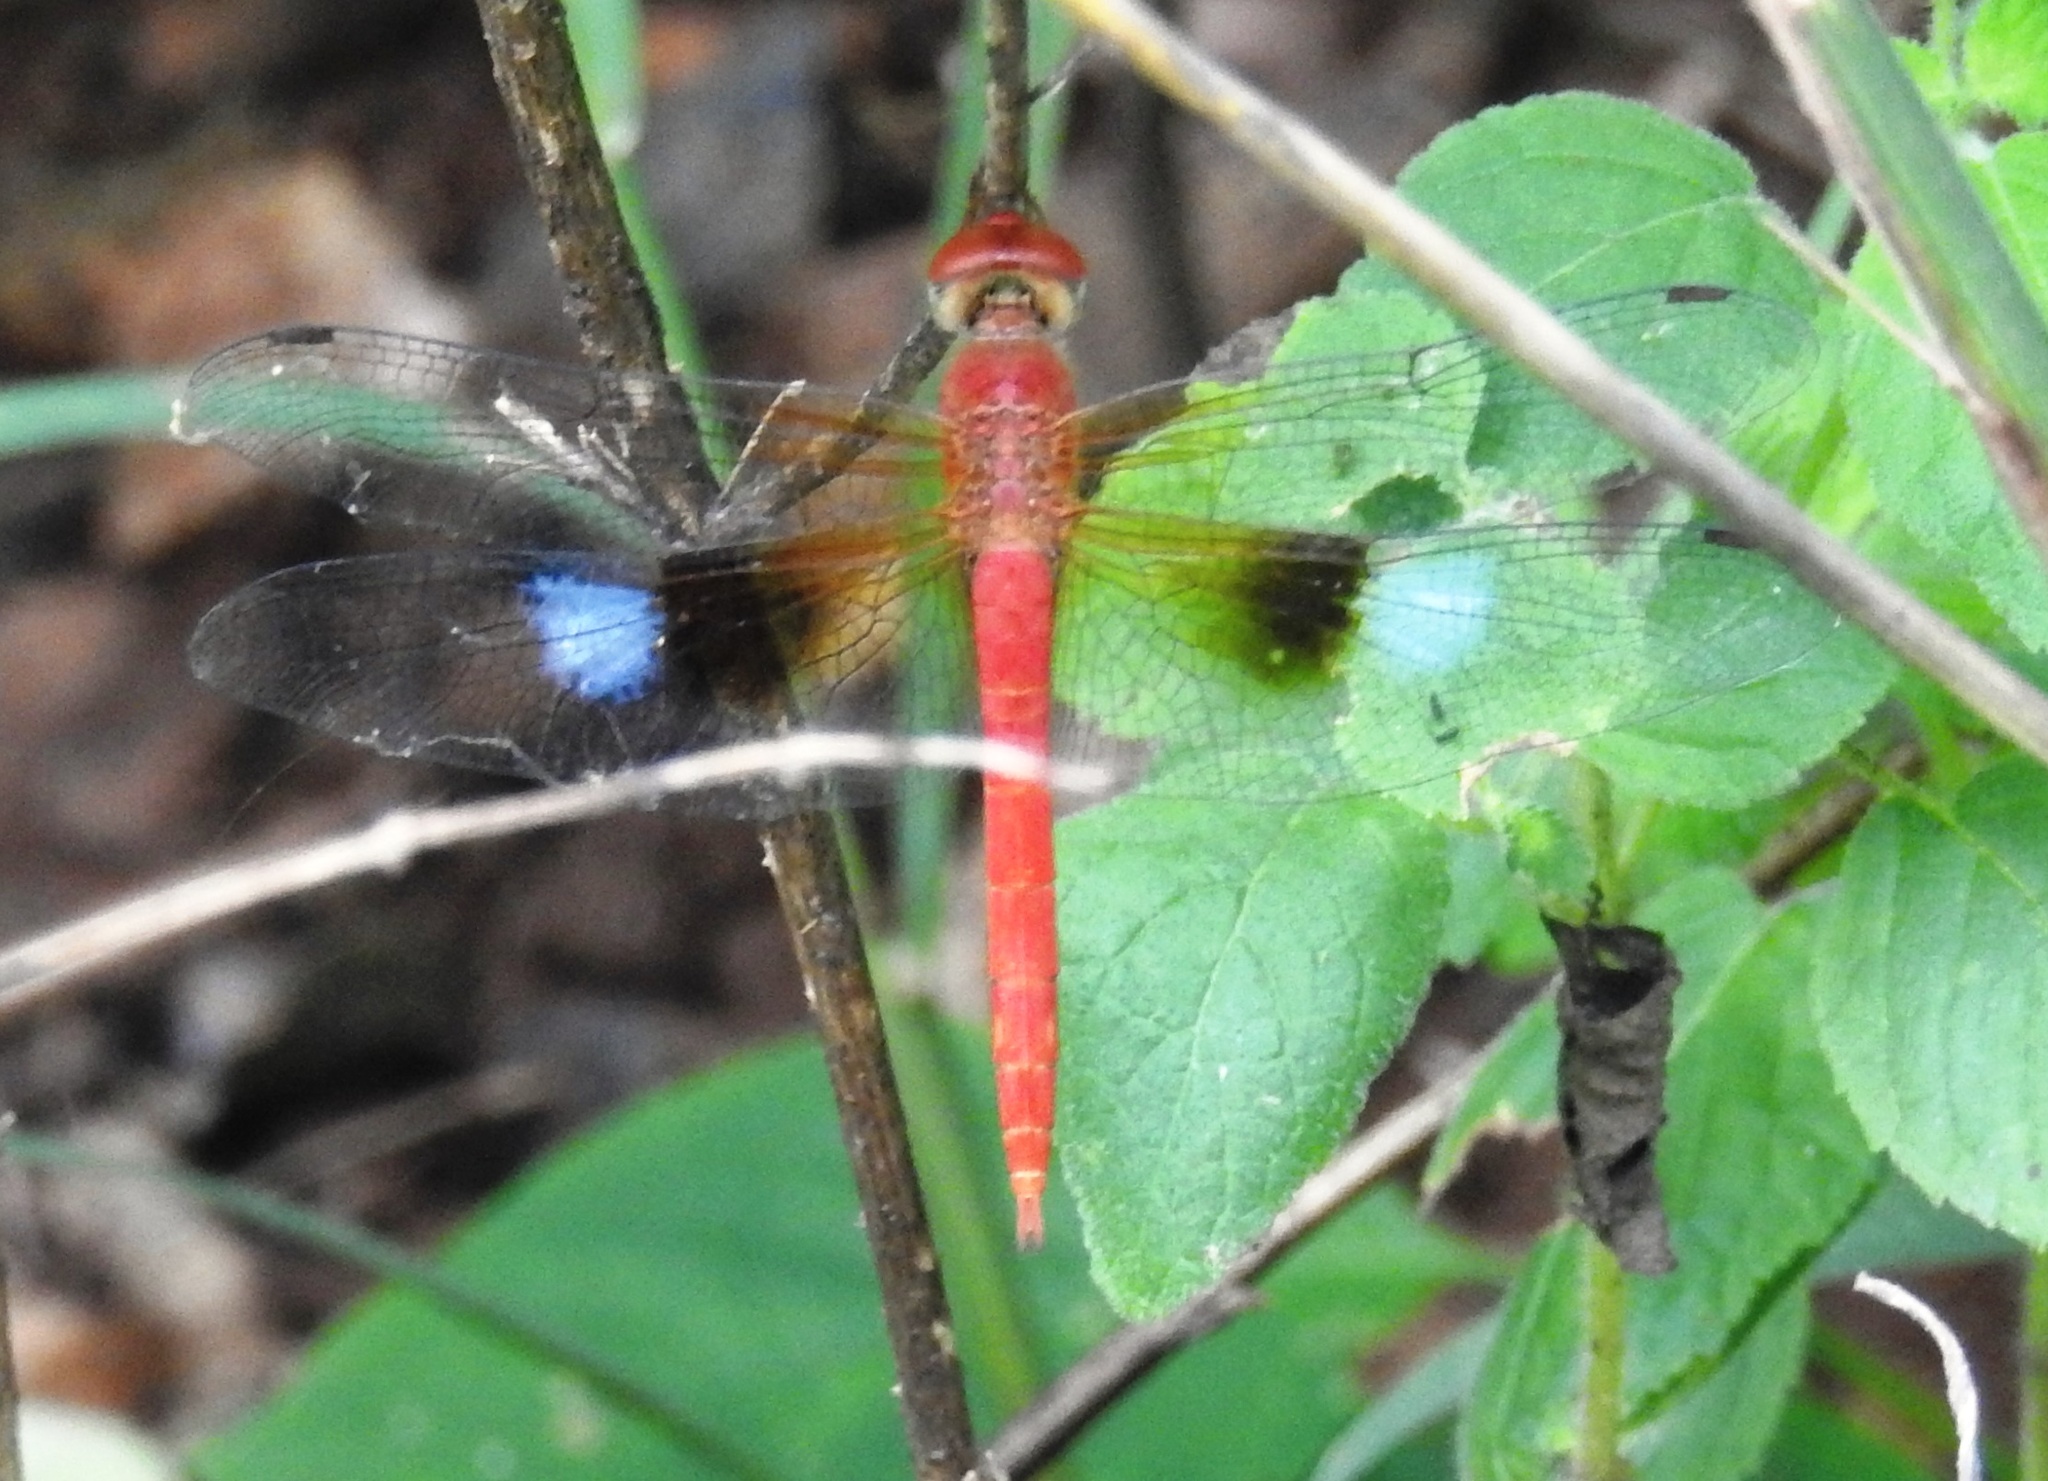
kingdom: Animalia
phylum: Arthropoda
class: Insecta
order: Odonata
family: Libellulidae
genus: Tholymis
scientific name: Tholymis tillarga
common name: Coral-tailed cloud wing
